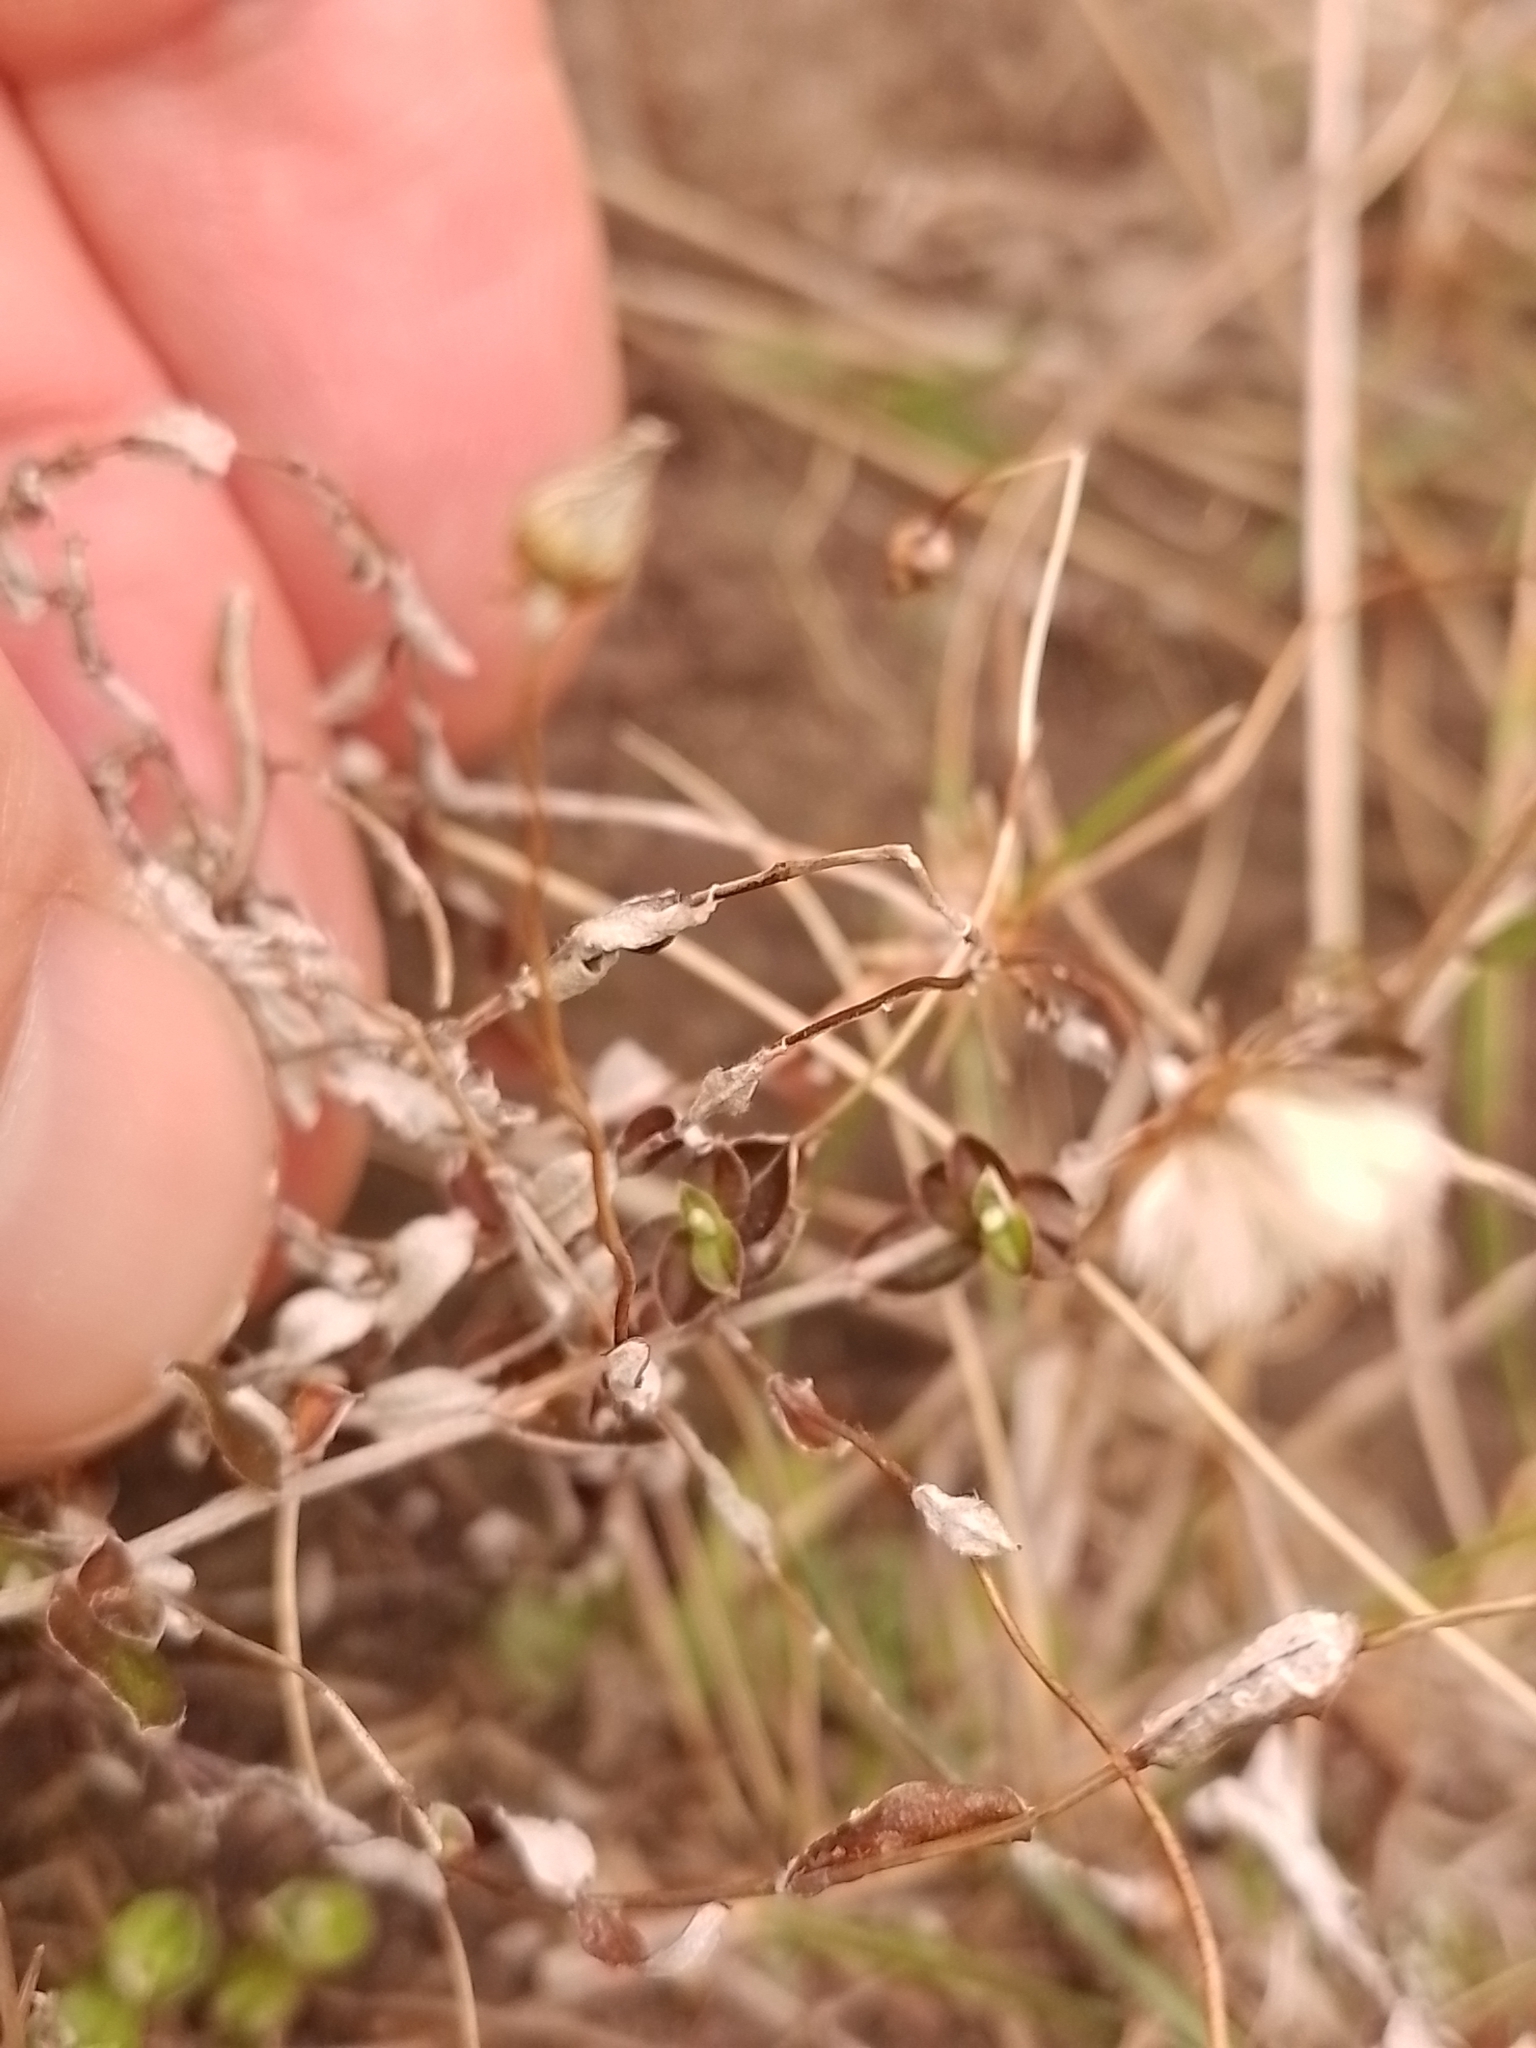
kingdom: Plantae
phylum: Tracheophyta
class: Magnoliopsida
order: Asterales
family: Asteraceae
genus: Helichrysum
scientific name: Helichrysum filicaule
